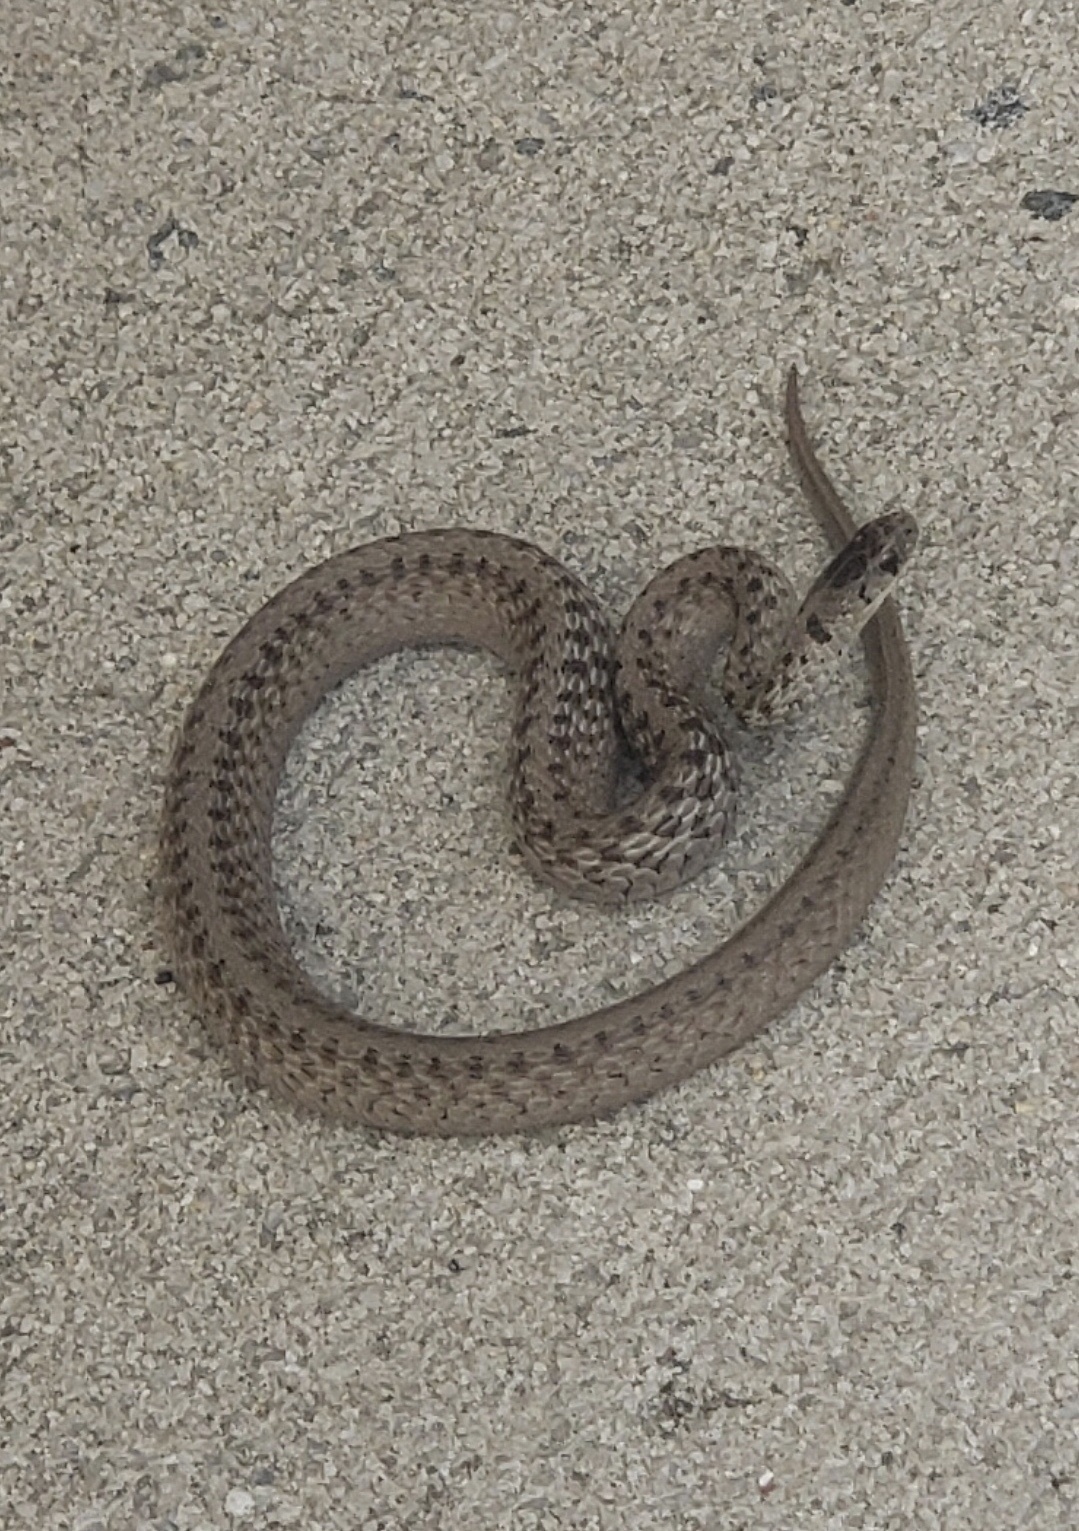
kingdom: Animalia
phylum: Chordata
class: Squamata
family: Colubridae
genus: Storeria
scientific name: Storeria dekayi
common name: (dekay’s) brown snake
